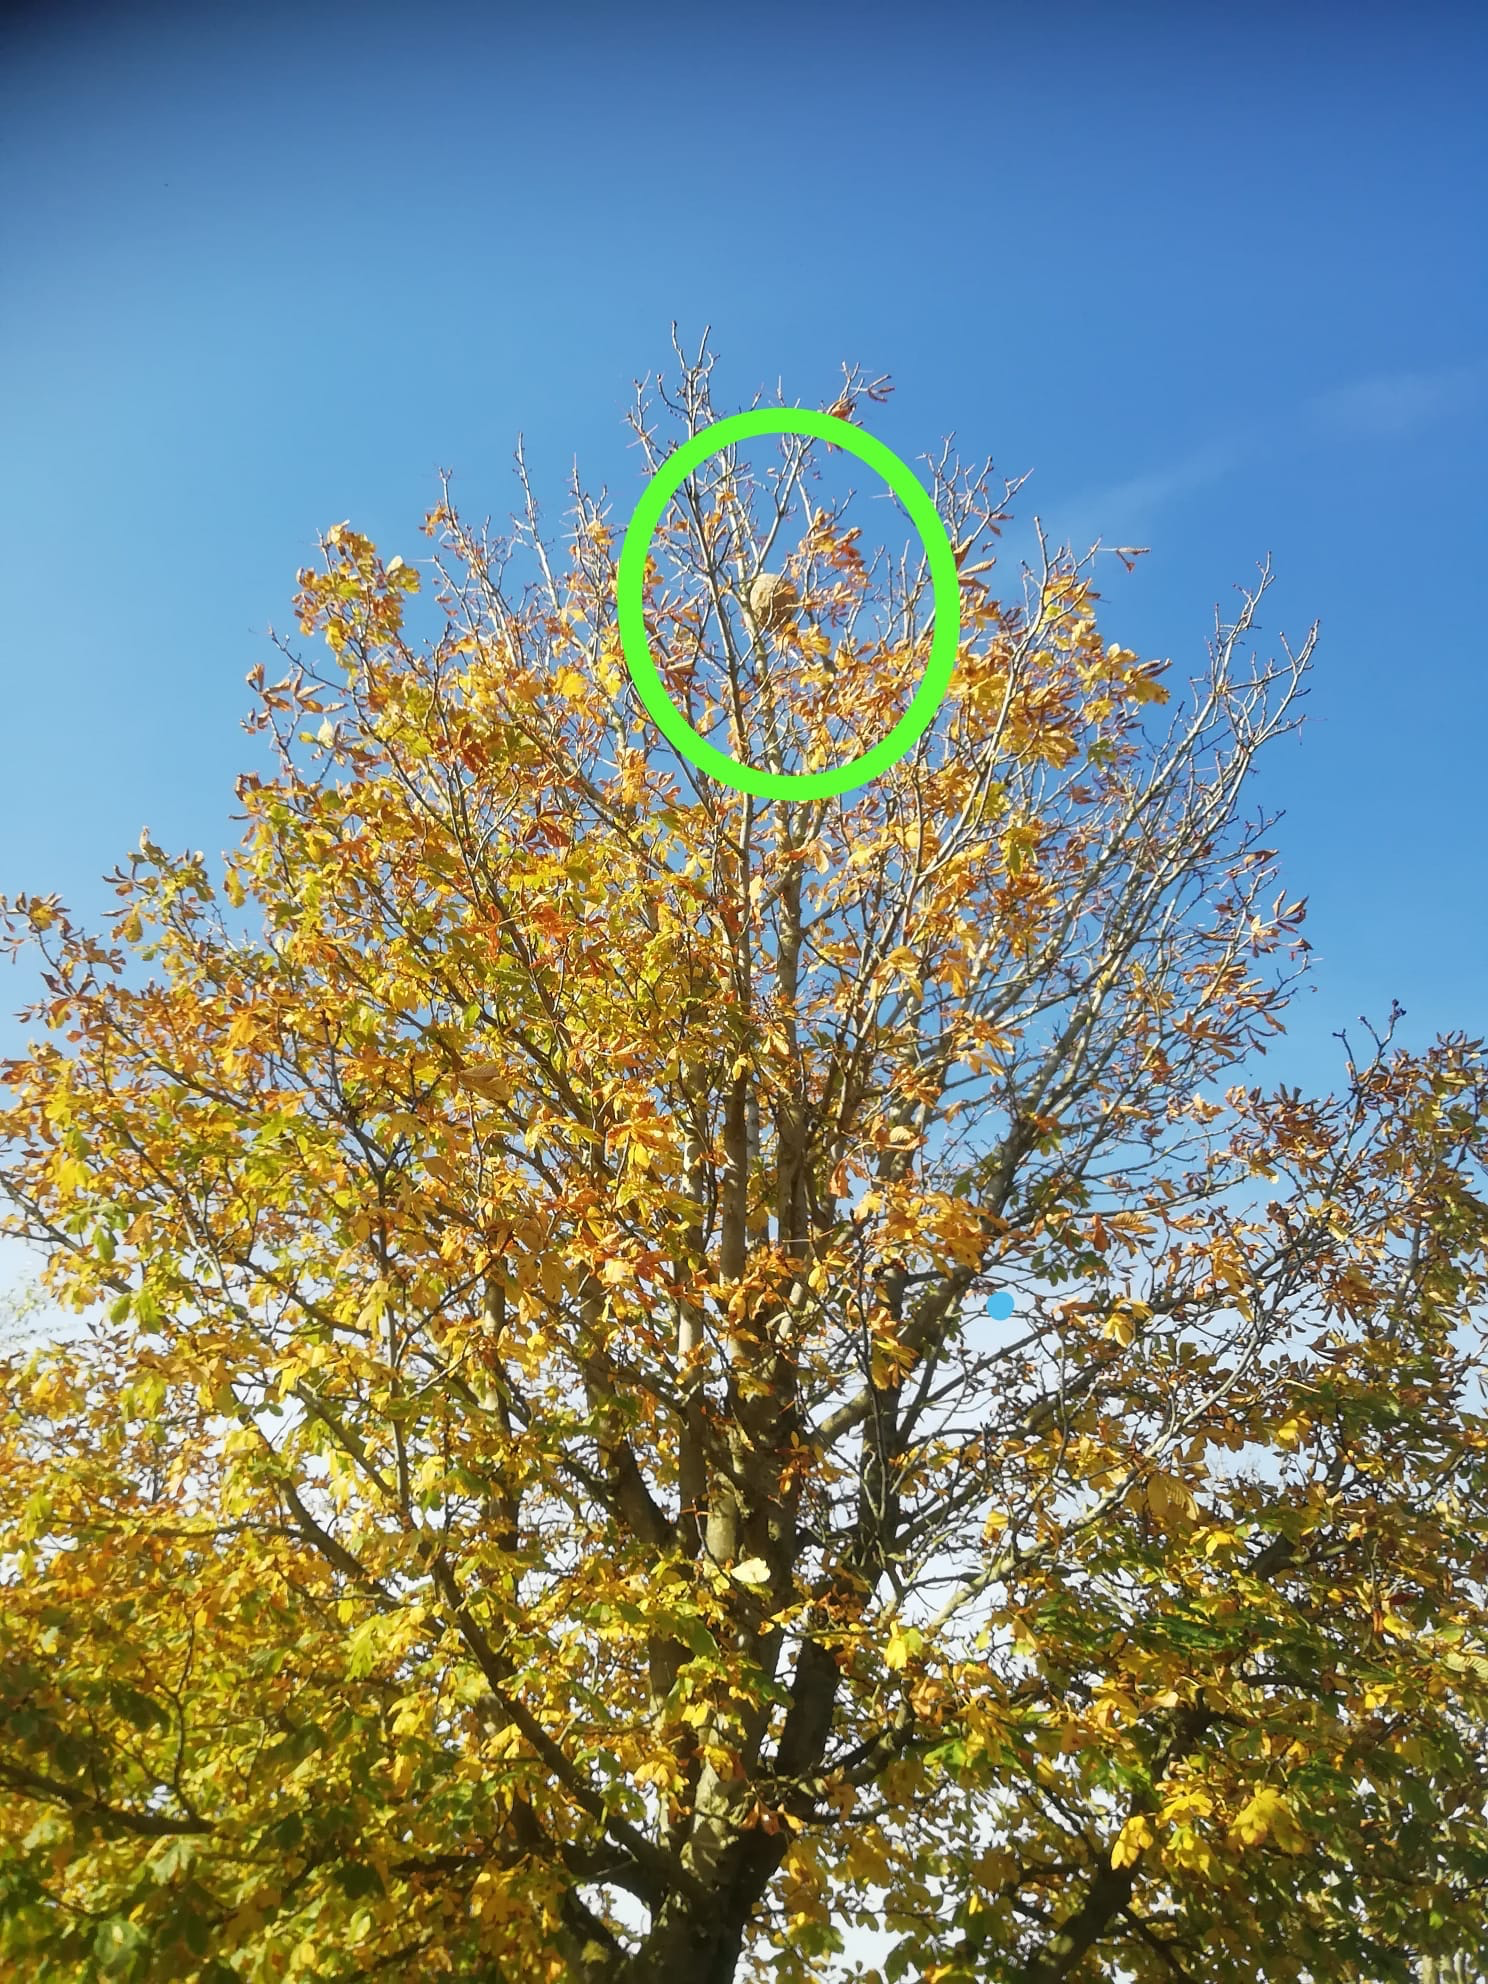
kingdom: Animalia
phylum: Arthropoda
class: Insecta
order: Hymenoptera
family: Vespidae
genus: Vespa
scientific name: Vespa velutina
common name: Asian hornet
